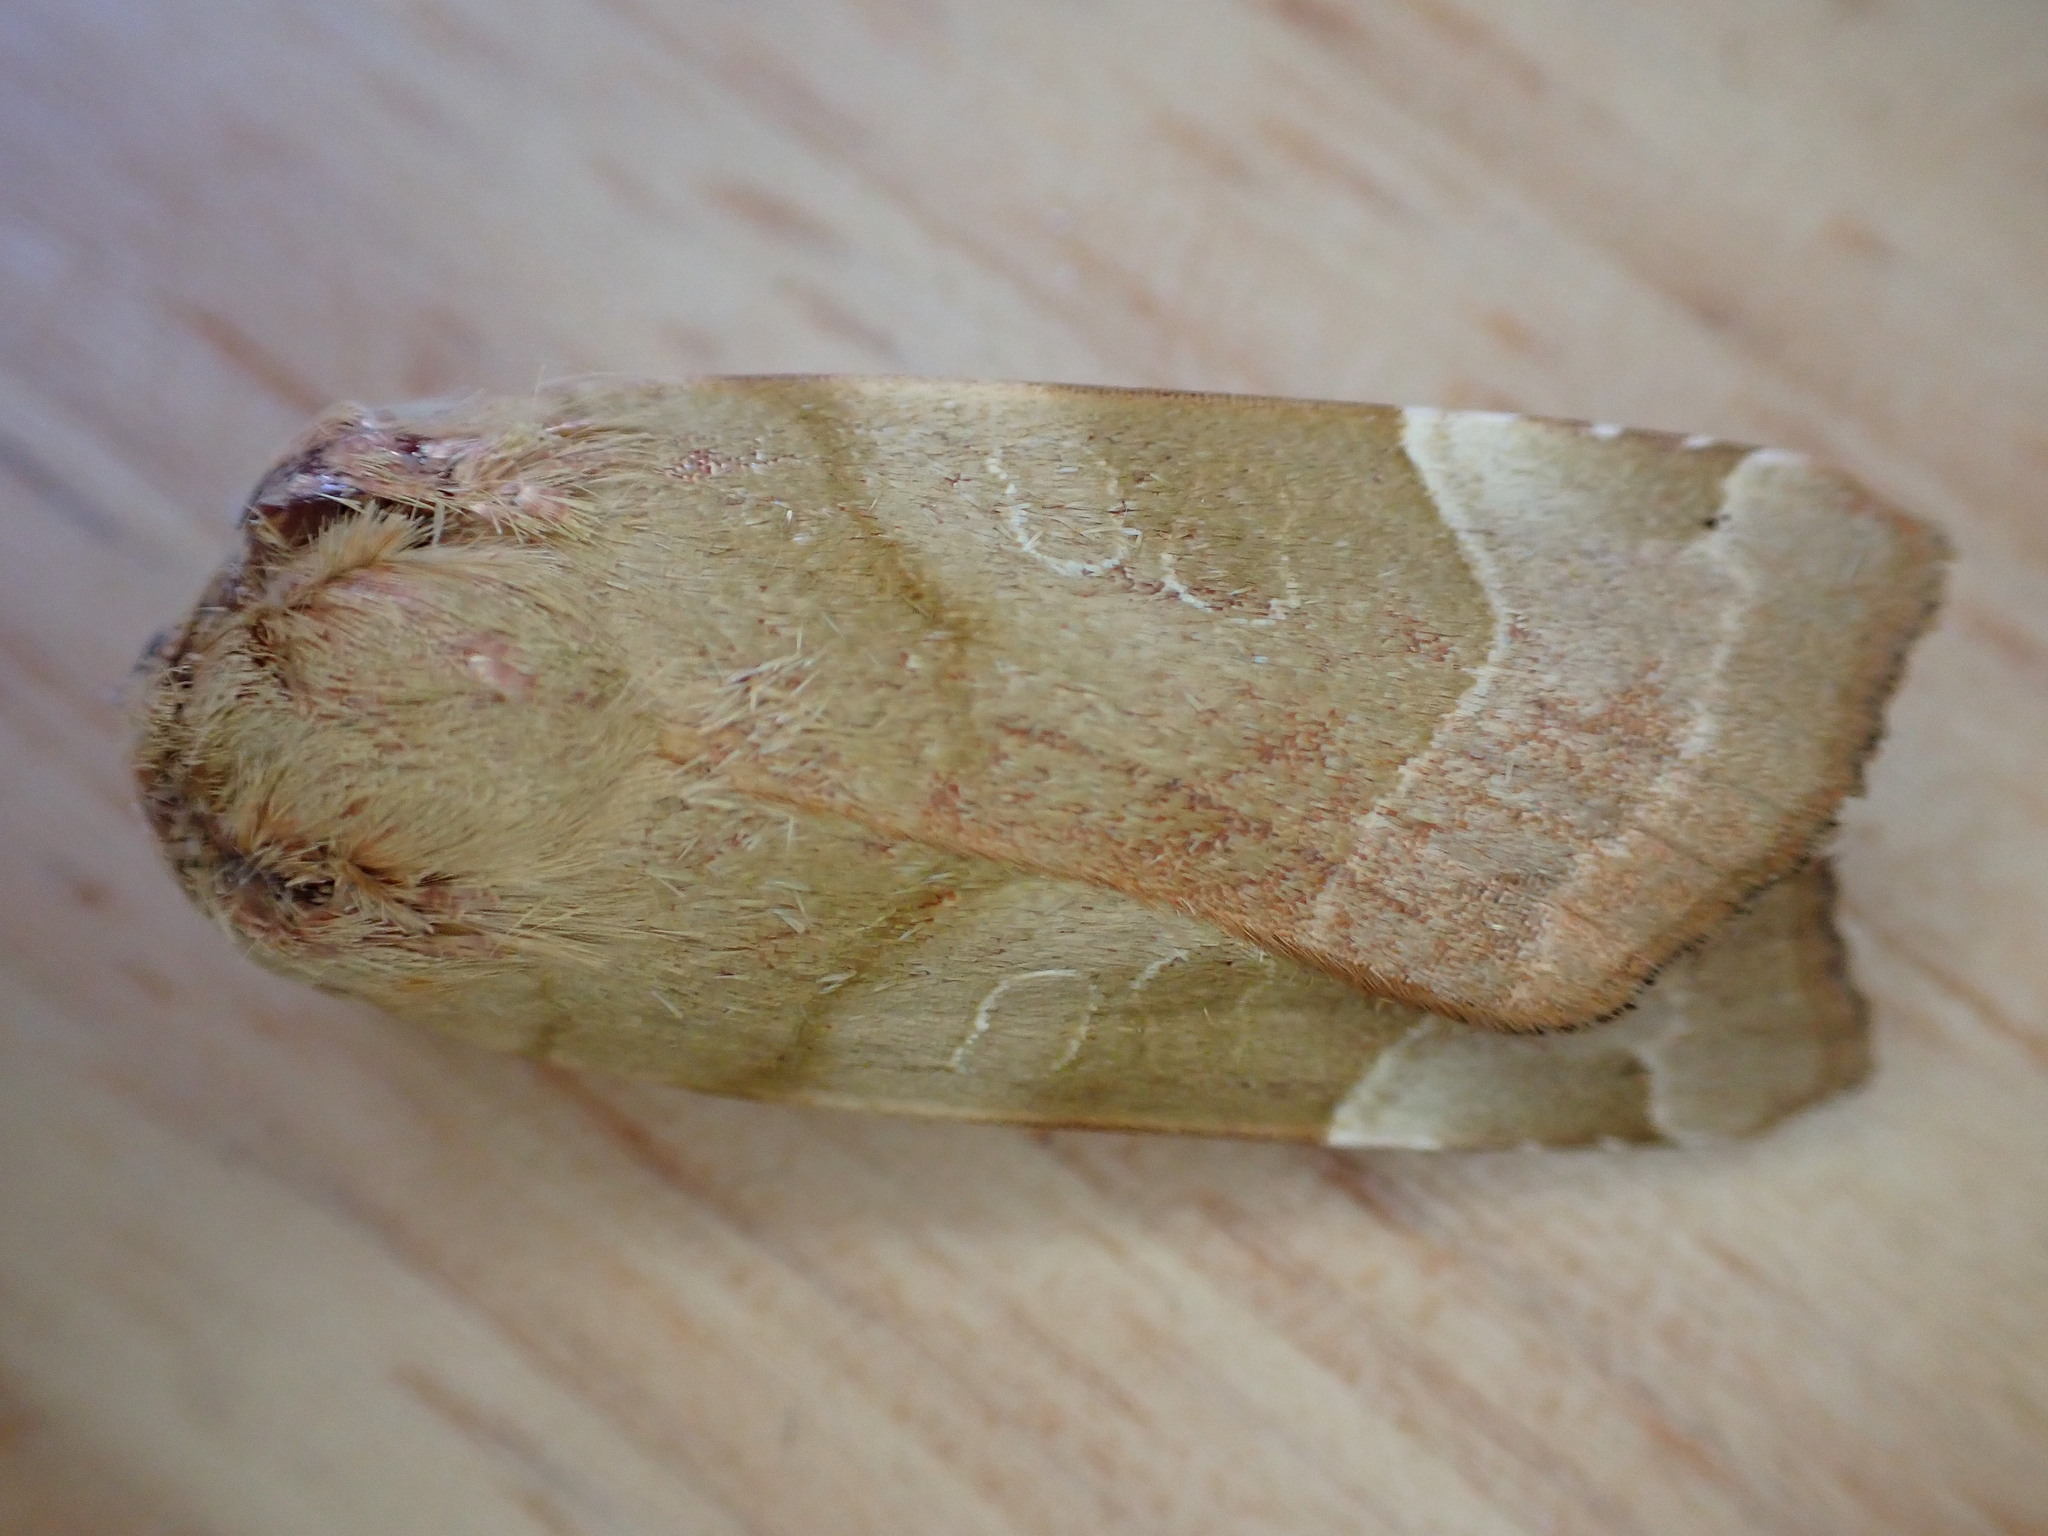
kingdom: Animalia
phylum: Arthropoda
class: Insecta
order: Lepidoptera
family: Noctuidae
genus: Noctua
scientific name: Noctua fimbriata
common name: Broad-bordered yellow underwing
